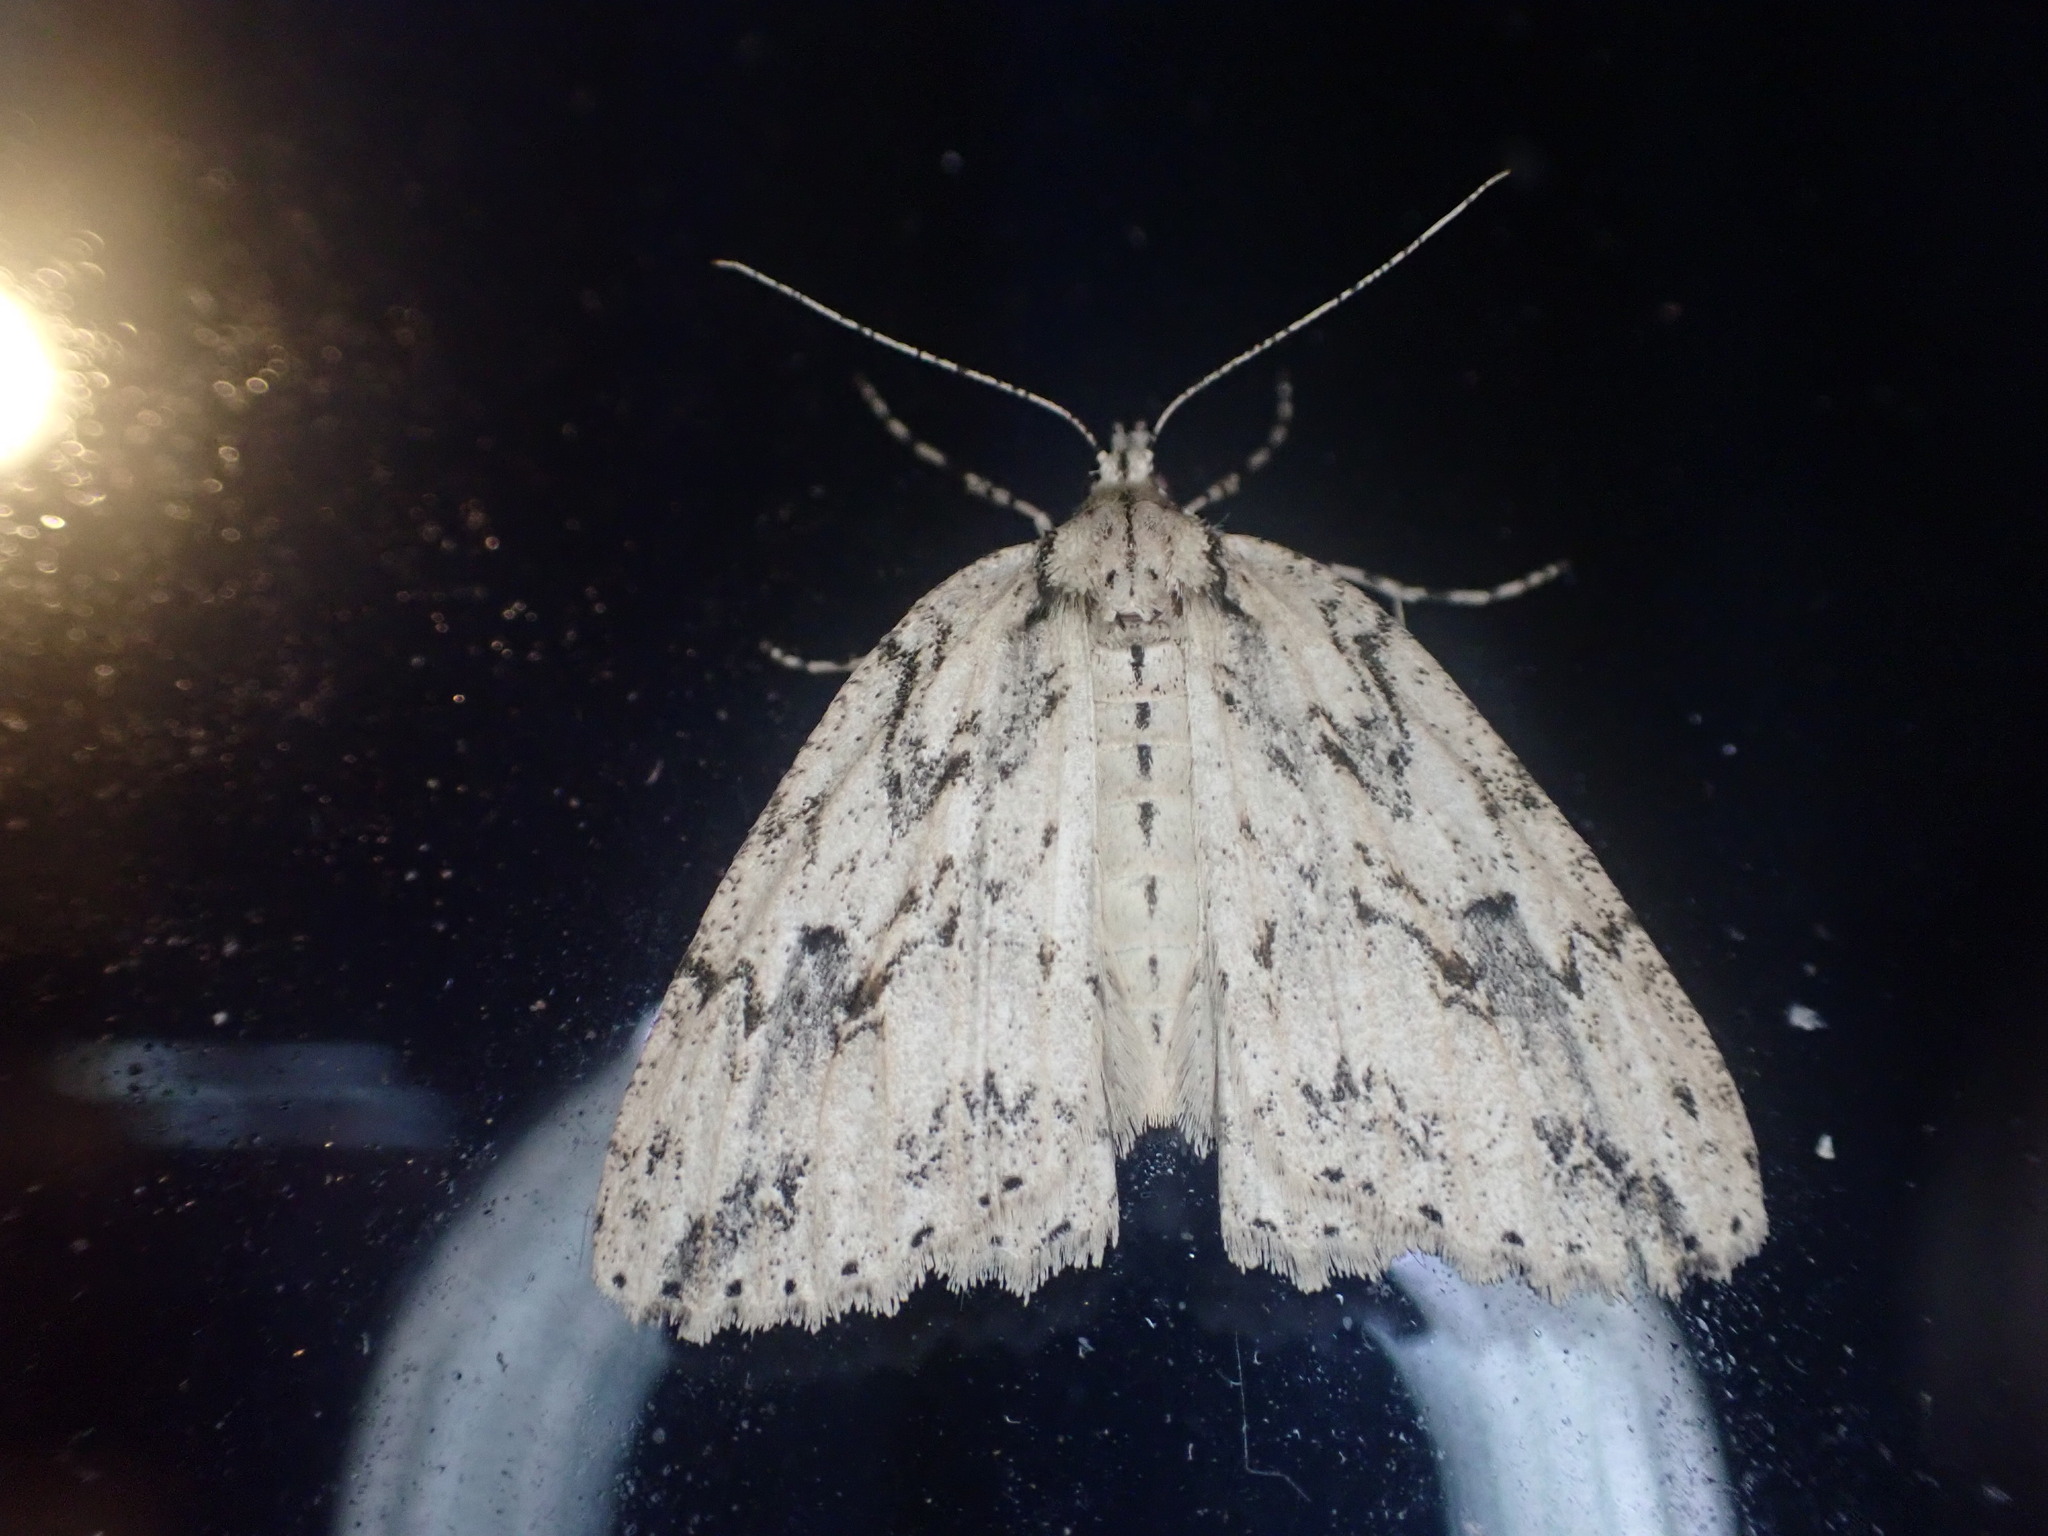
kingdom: Animalia
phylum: Arthropoda
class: Insecta
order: Lepidoptera
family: Geometridae
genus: Pseudocoremia
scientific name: Pseudocoremia rudisata
